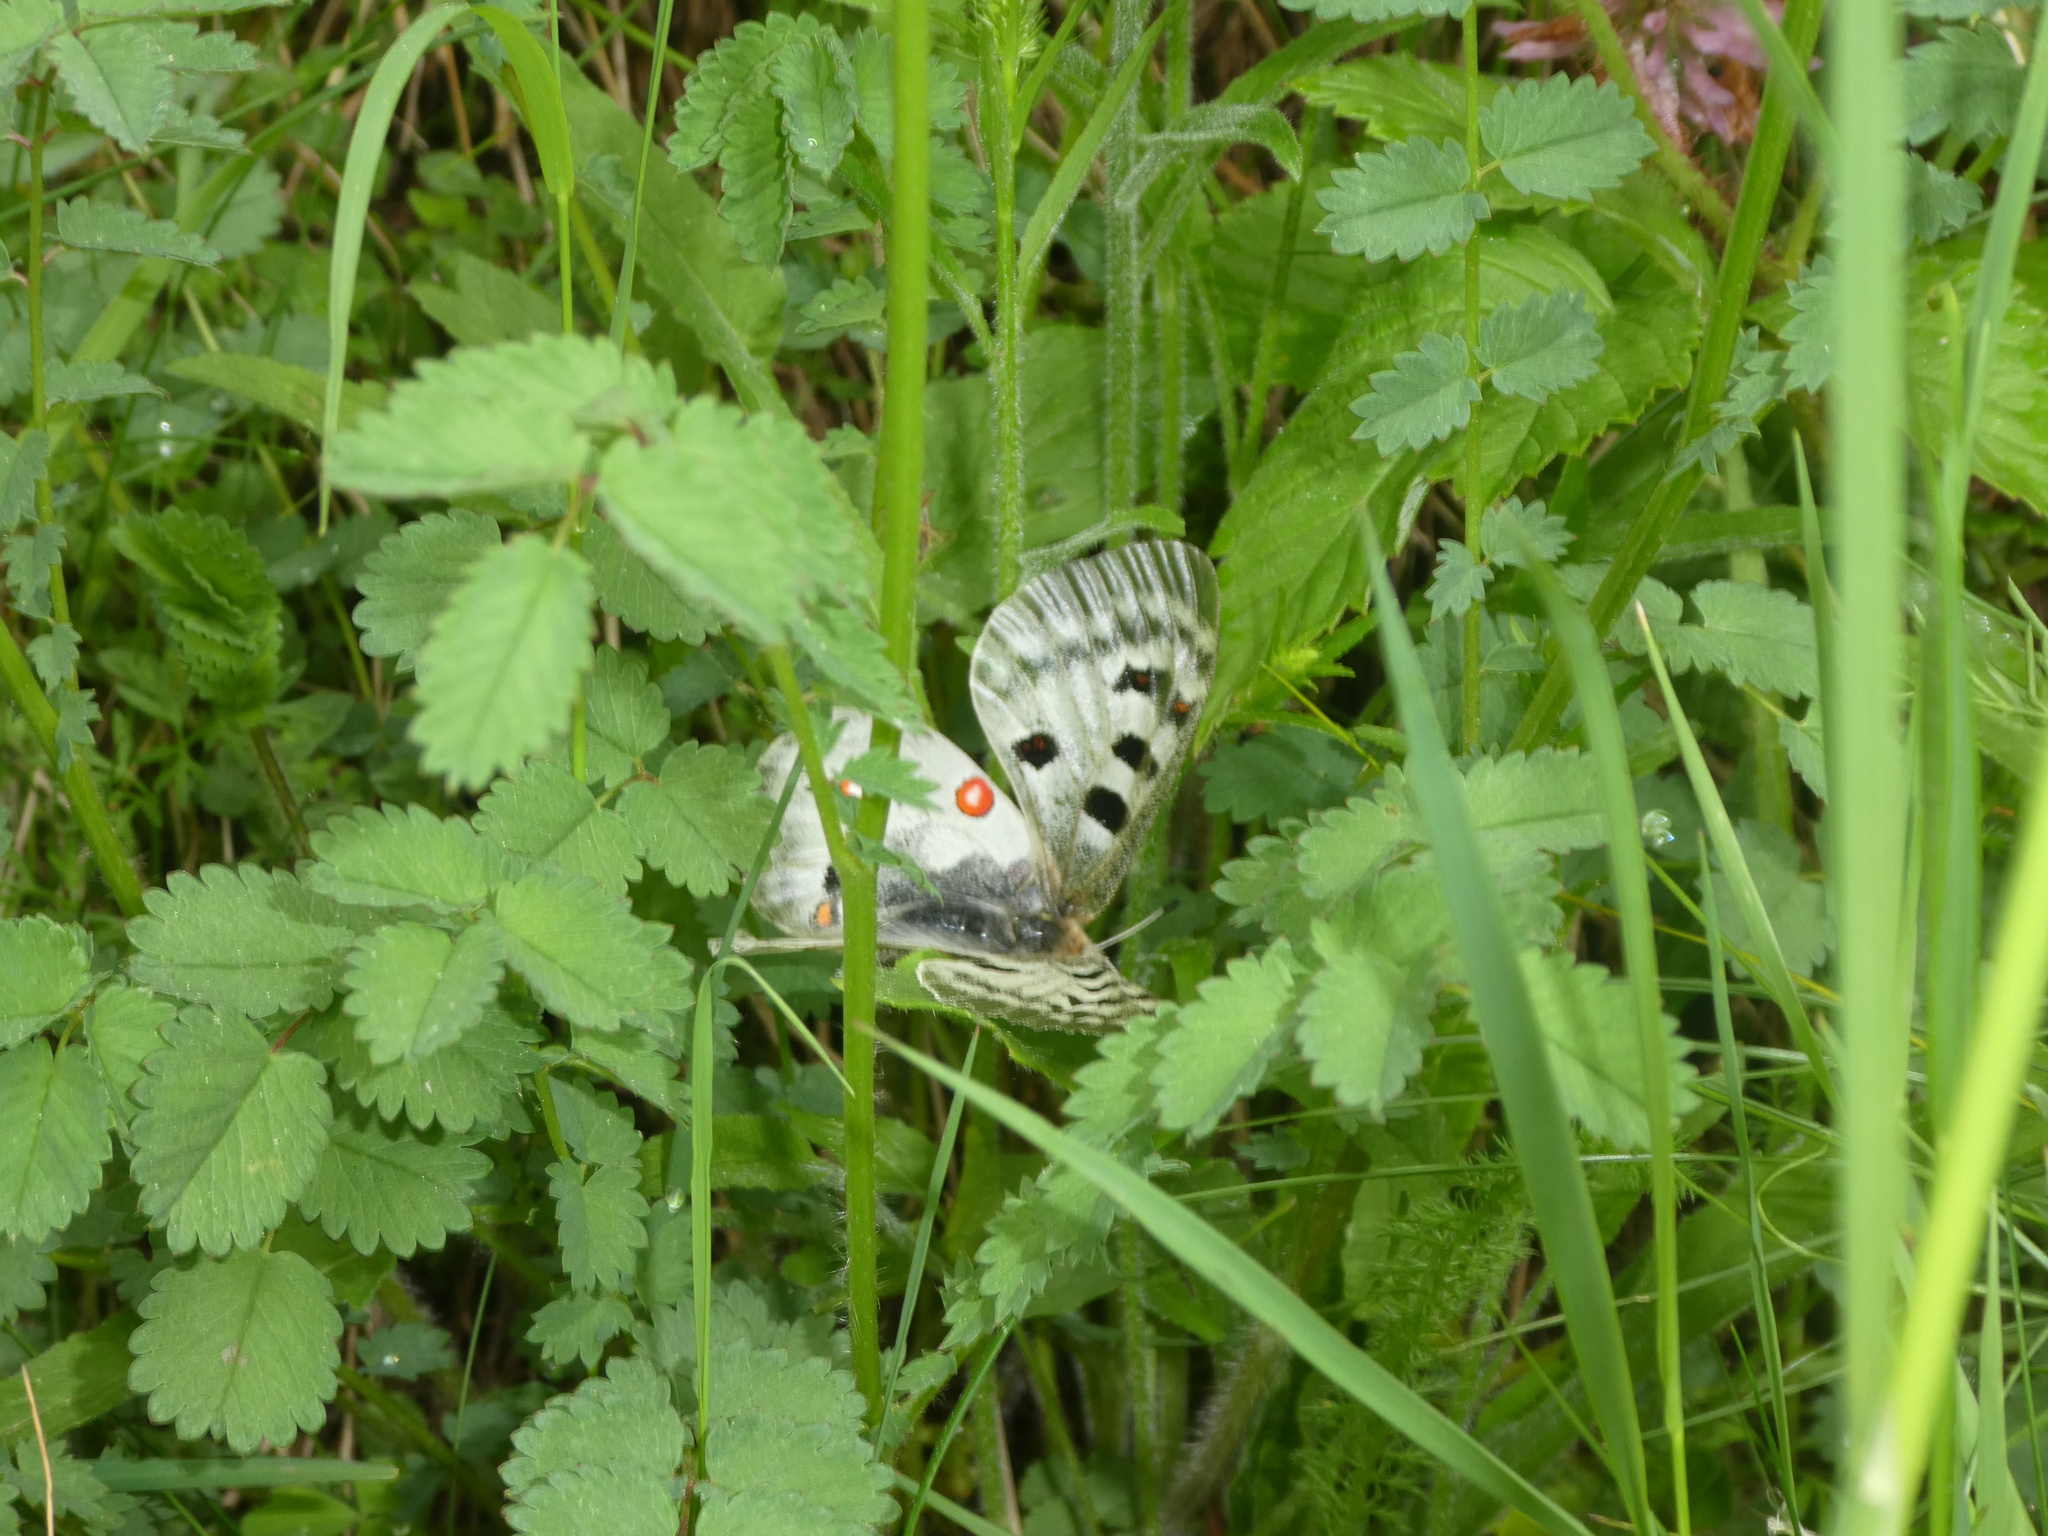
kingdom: Animalia
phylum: Arthropoda
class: Insecta
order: Lepidoptera
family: Papilionidae
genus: Parnassius
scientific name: Parnassius apollo
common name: Apollo
